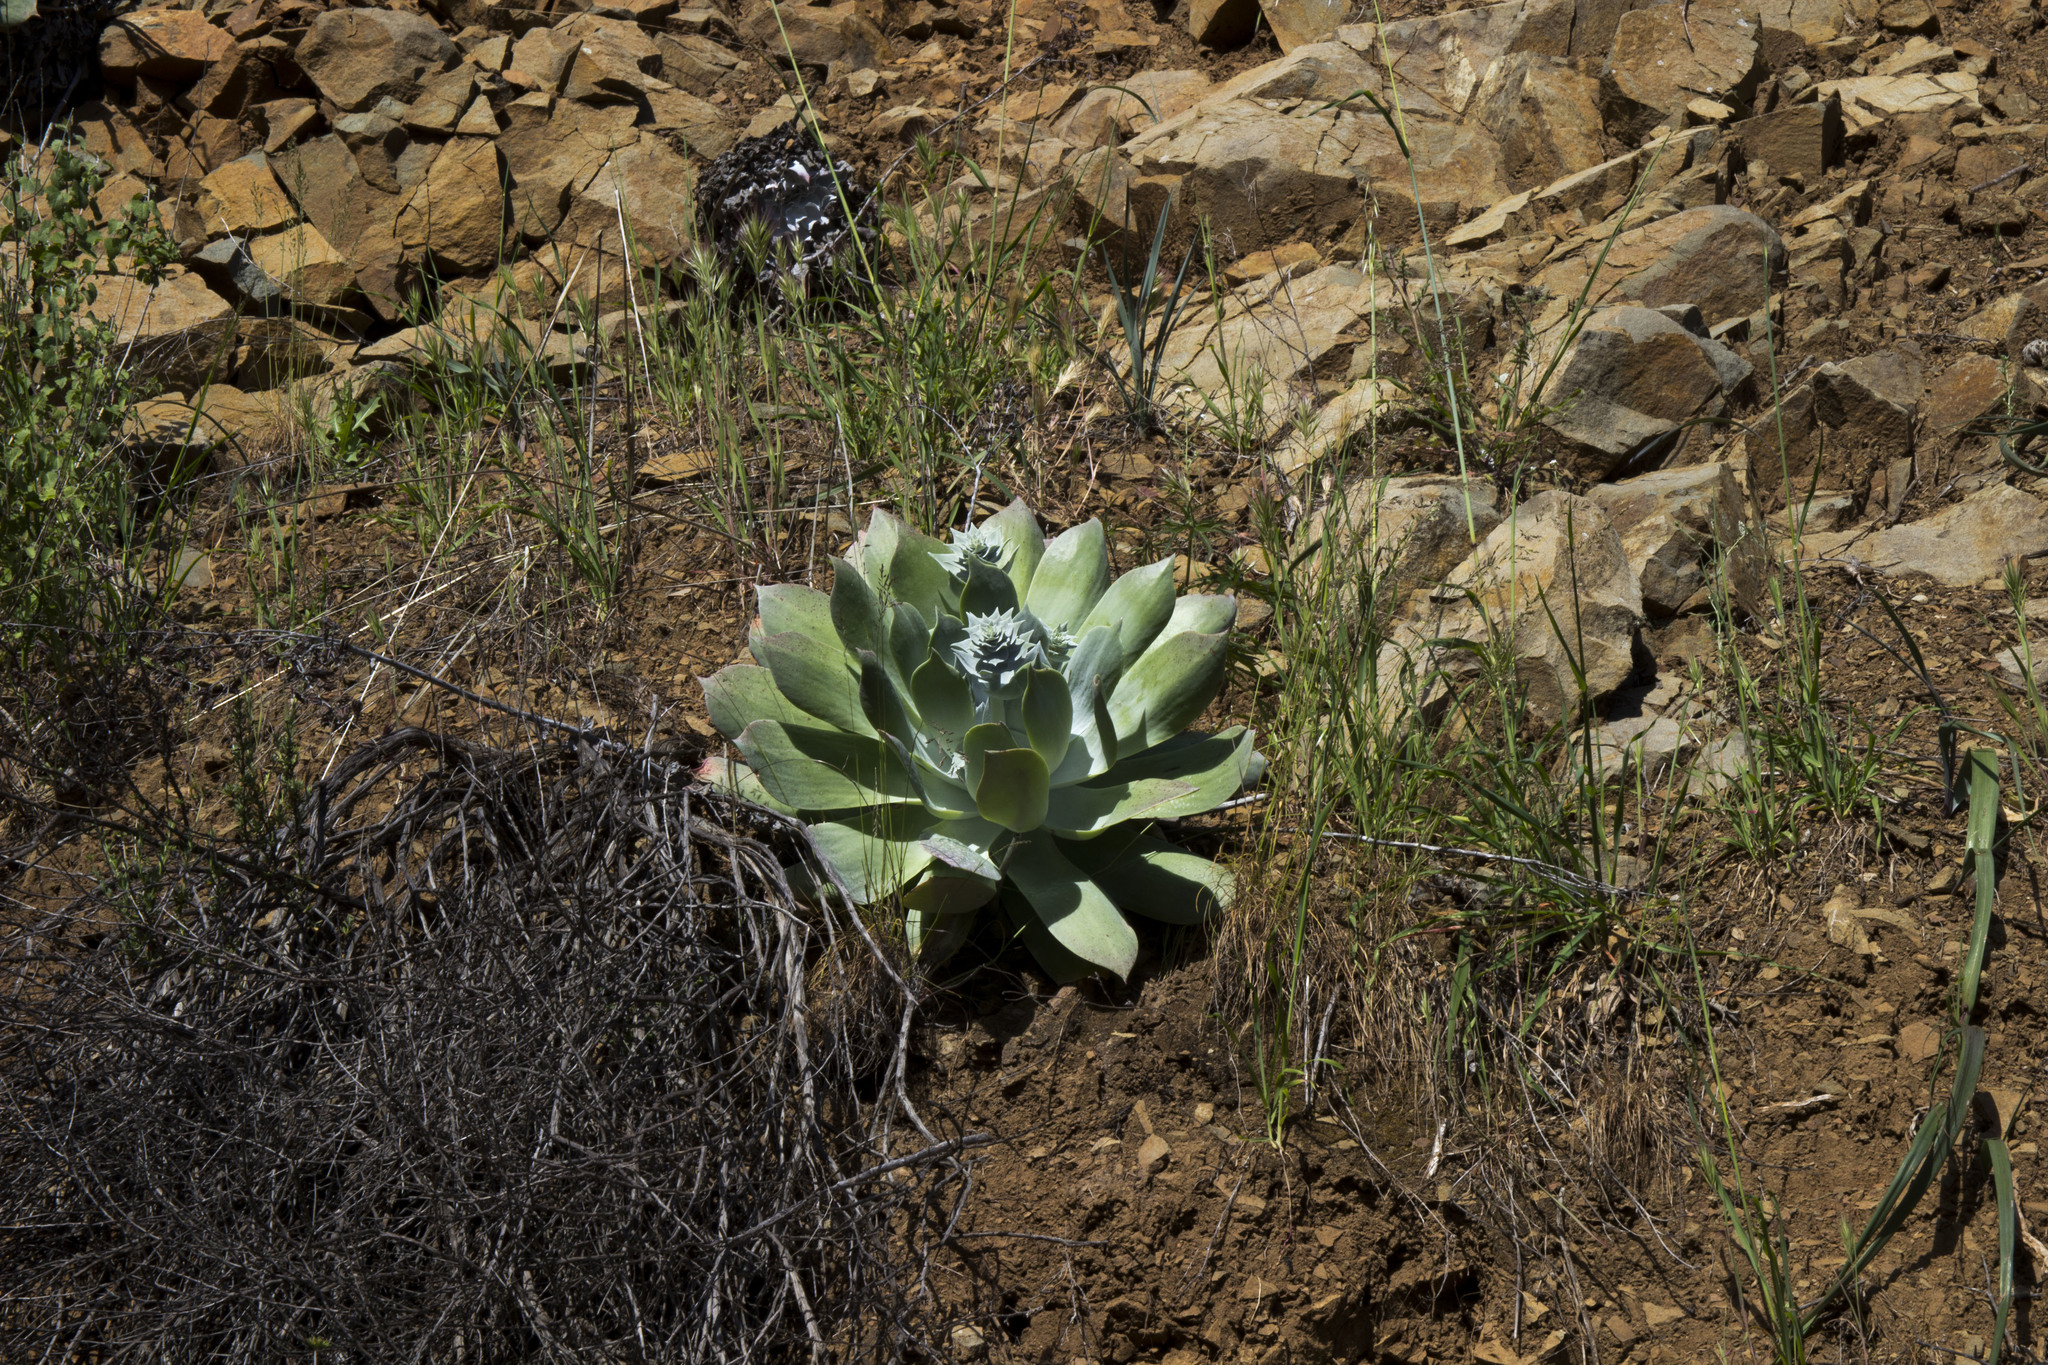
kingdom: Plantae
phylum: Tracheophyta
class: Magnoliopsida
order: Saxifragales
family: Crassulaceae
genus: Dudleya
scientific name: Dudleya pulverulenta
